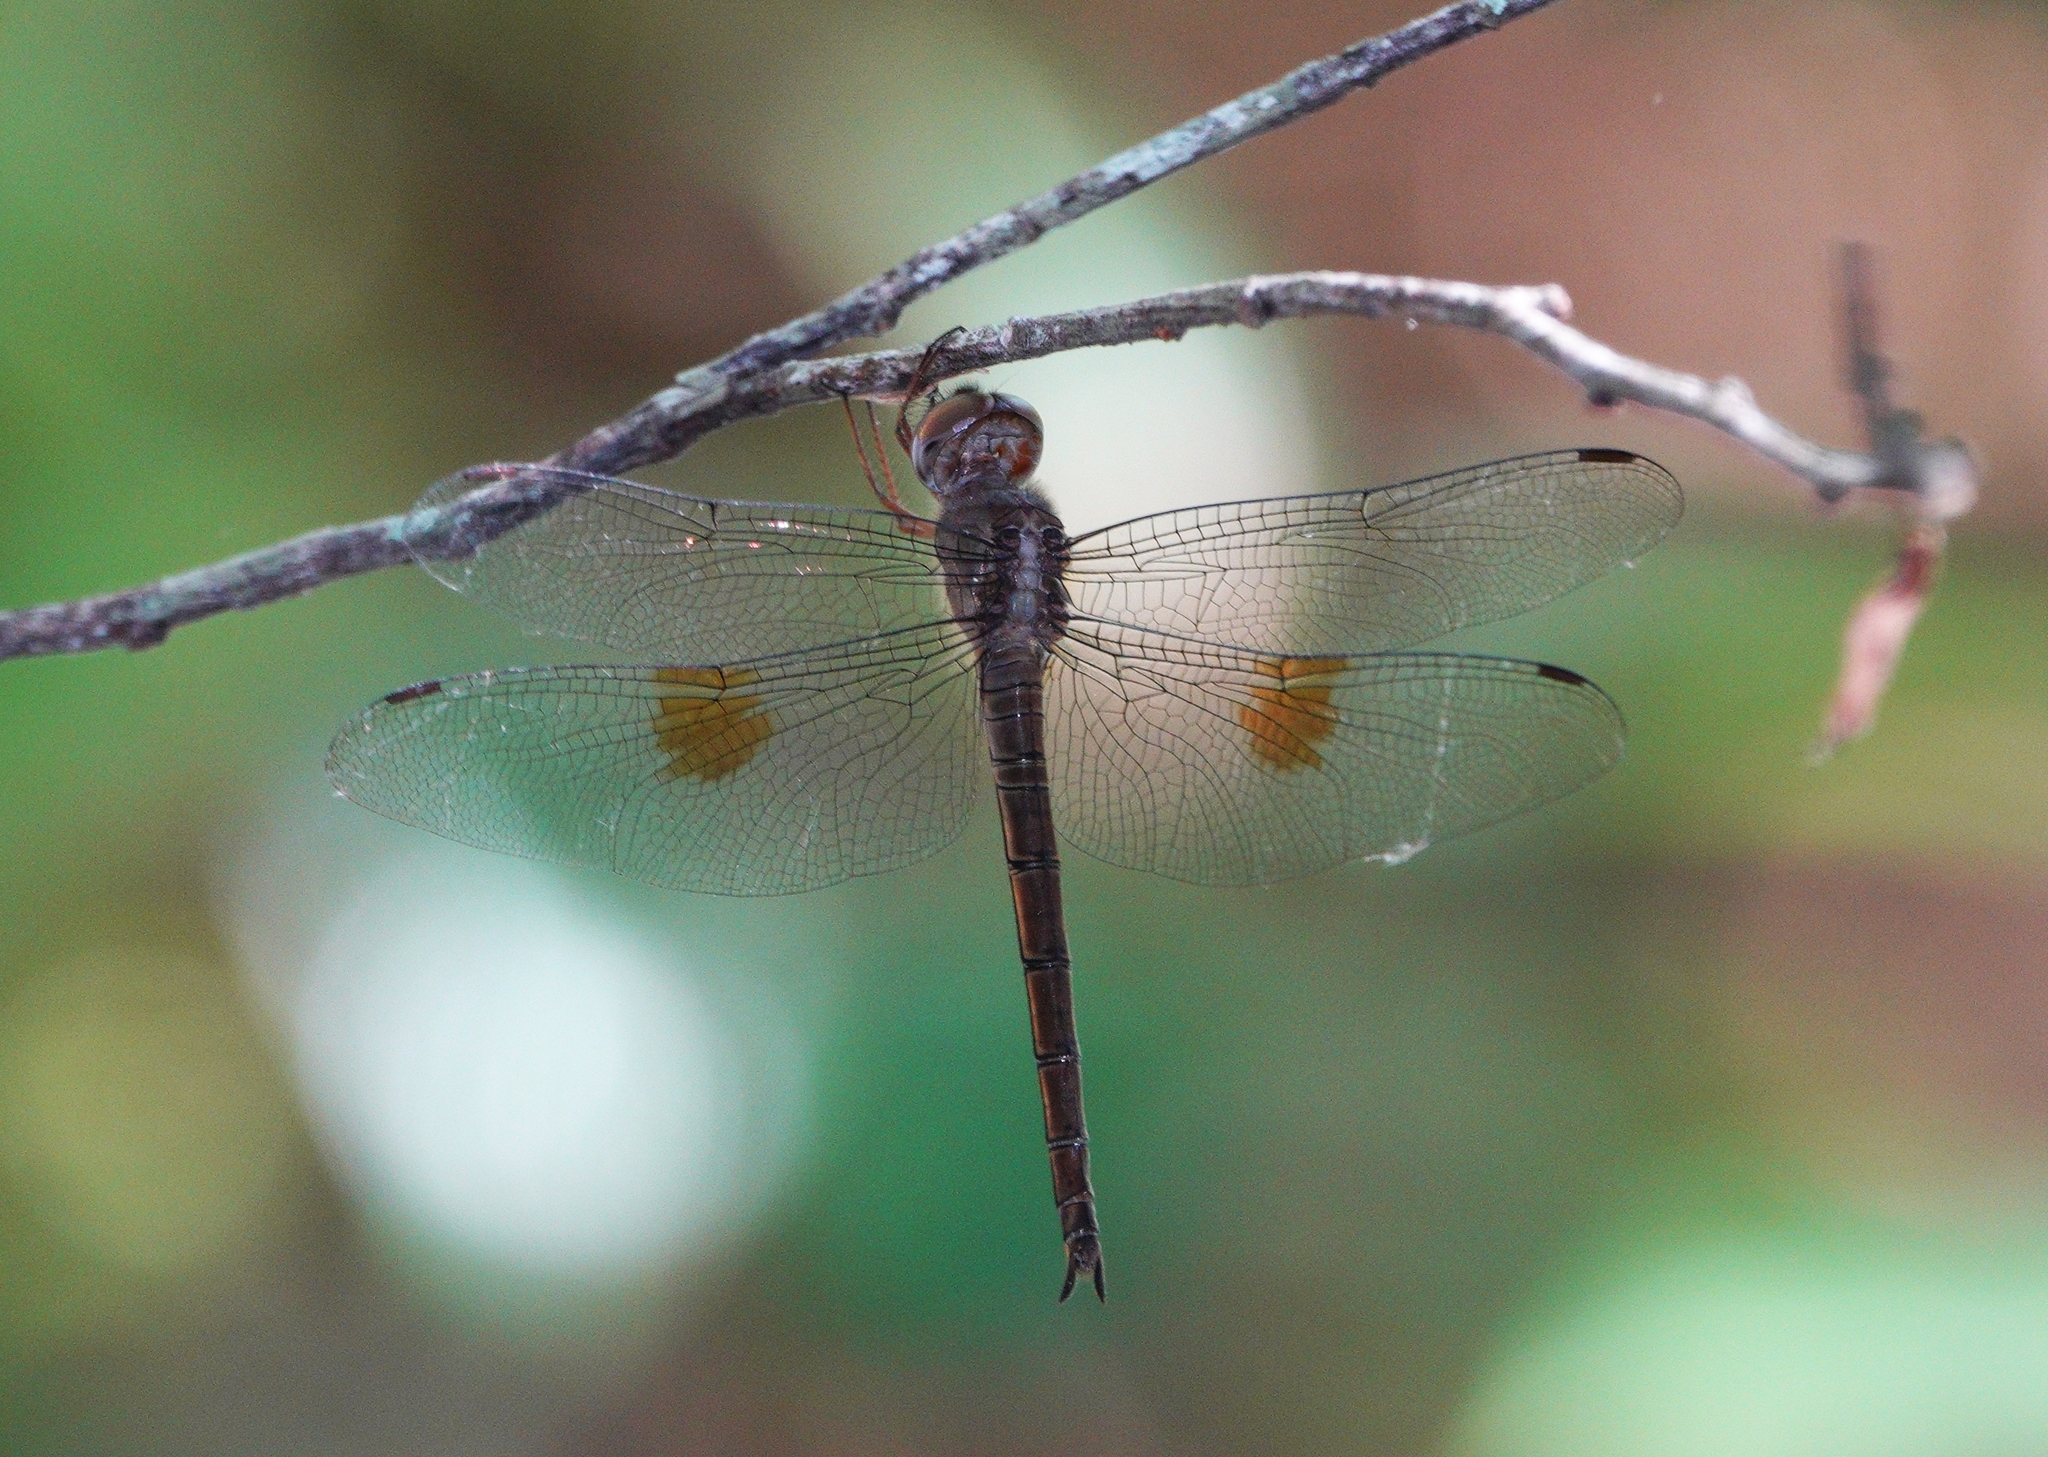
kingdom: Animalia
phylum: Arthropoda
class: Insecta
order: Odonata
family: Libellulidae
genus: Tholymis
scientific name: Tholymis citrina
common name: Evening skimmer
